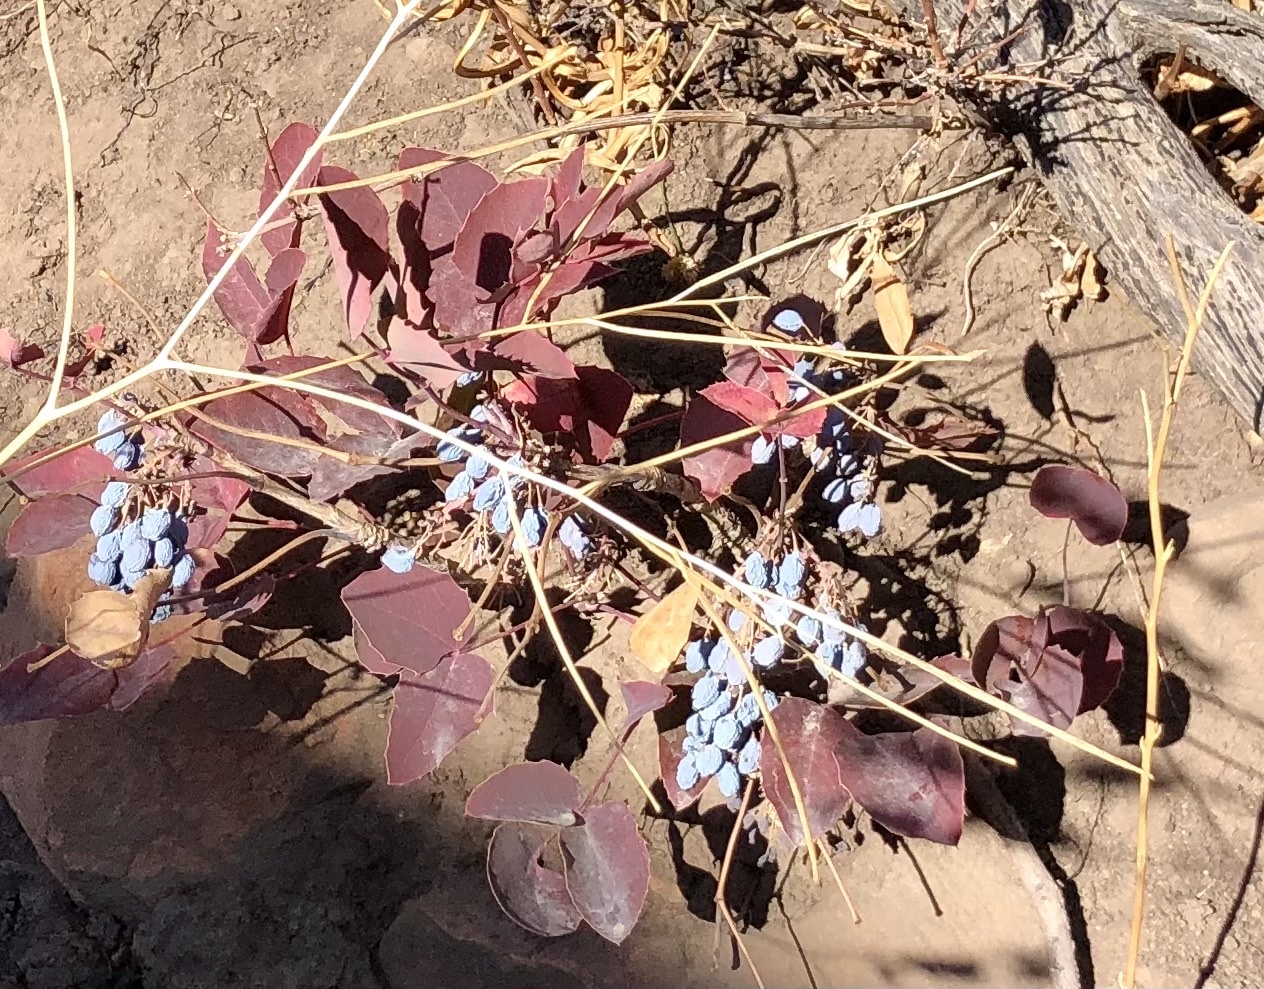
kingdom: Plantae
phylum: Tracheophyta
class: Magnoliopsida
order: Ranunculales
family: Berberidaceae
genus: Mahonia
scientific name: Mahonia repens
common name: Creeping oregon-grape
